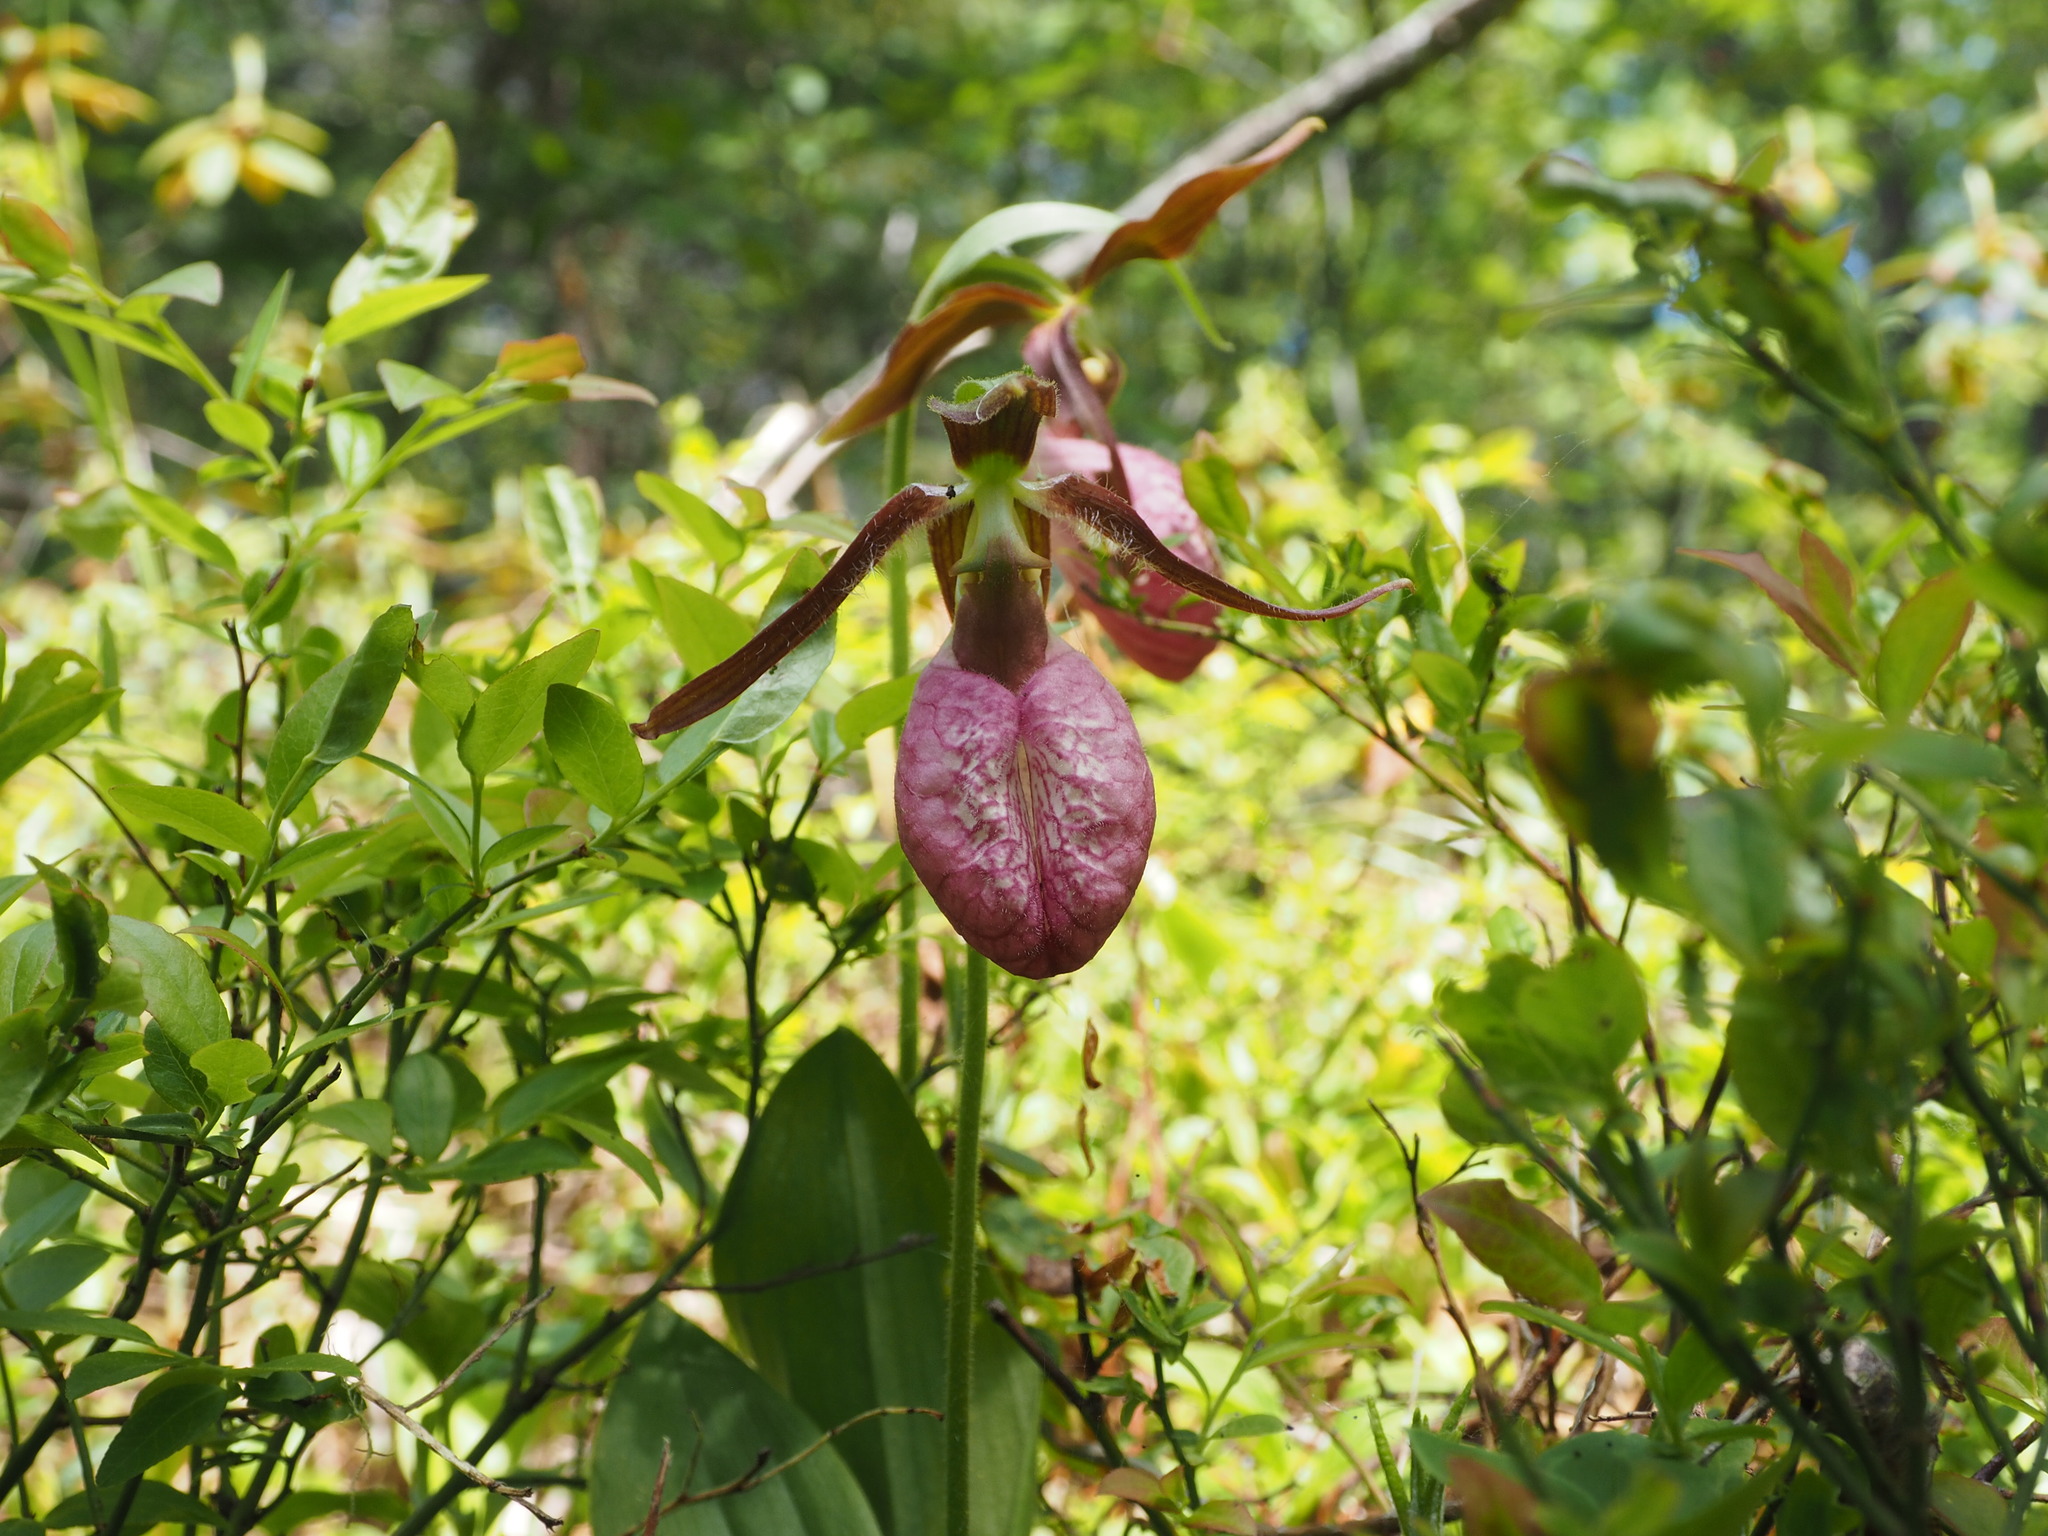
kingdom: Plantae
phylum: Tracheophyta
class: Liliopsida
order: Asparagales
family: Orchidaceae
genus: Cypripedium
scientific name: Cypripedium acaule
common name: Pink lady's-slipper
